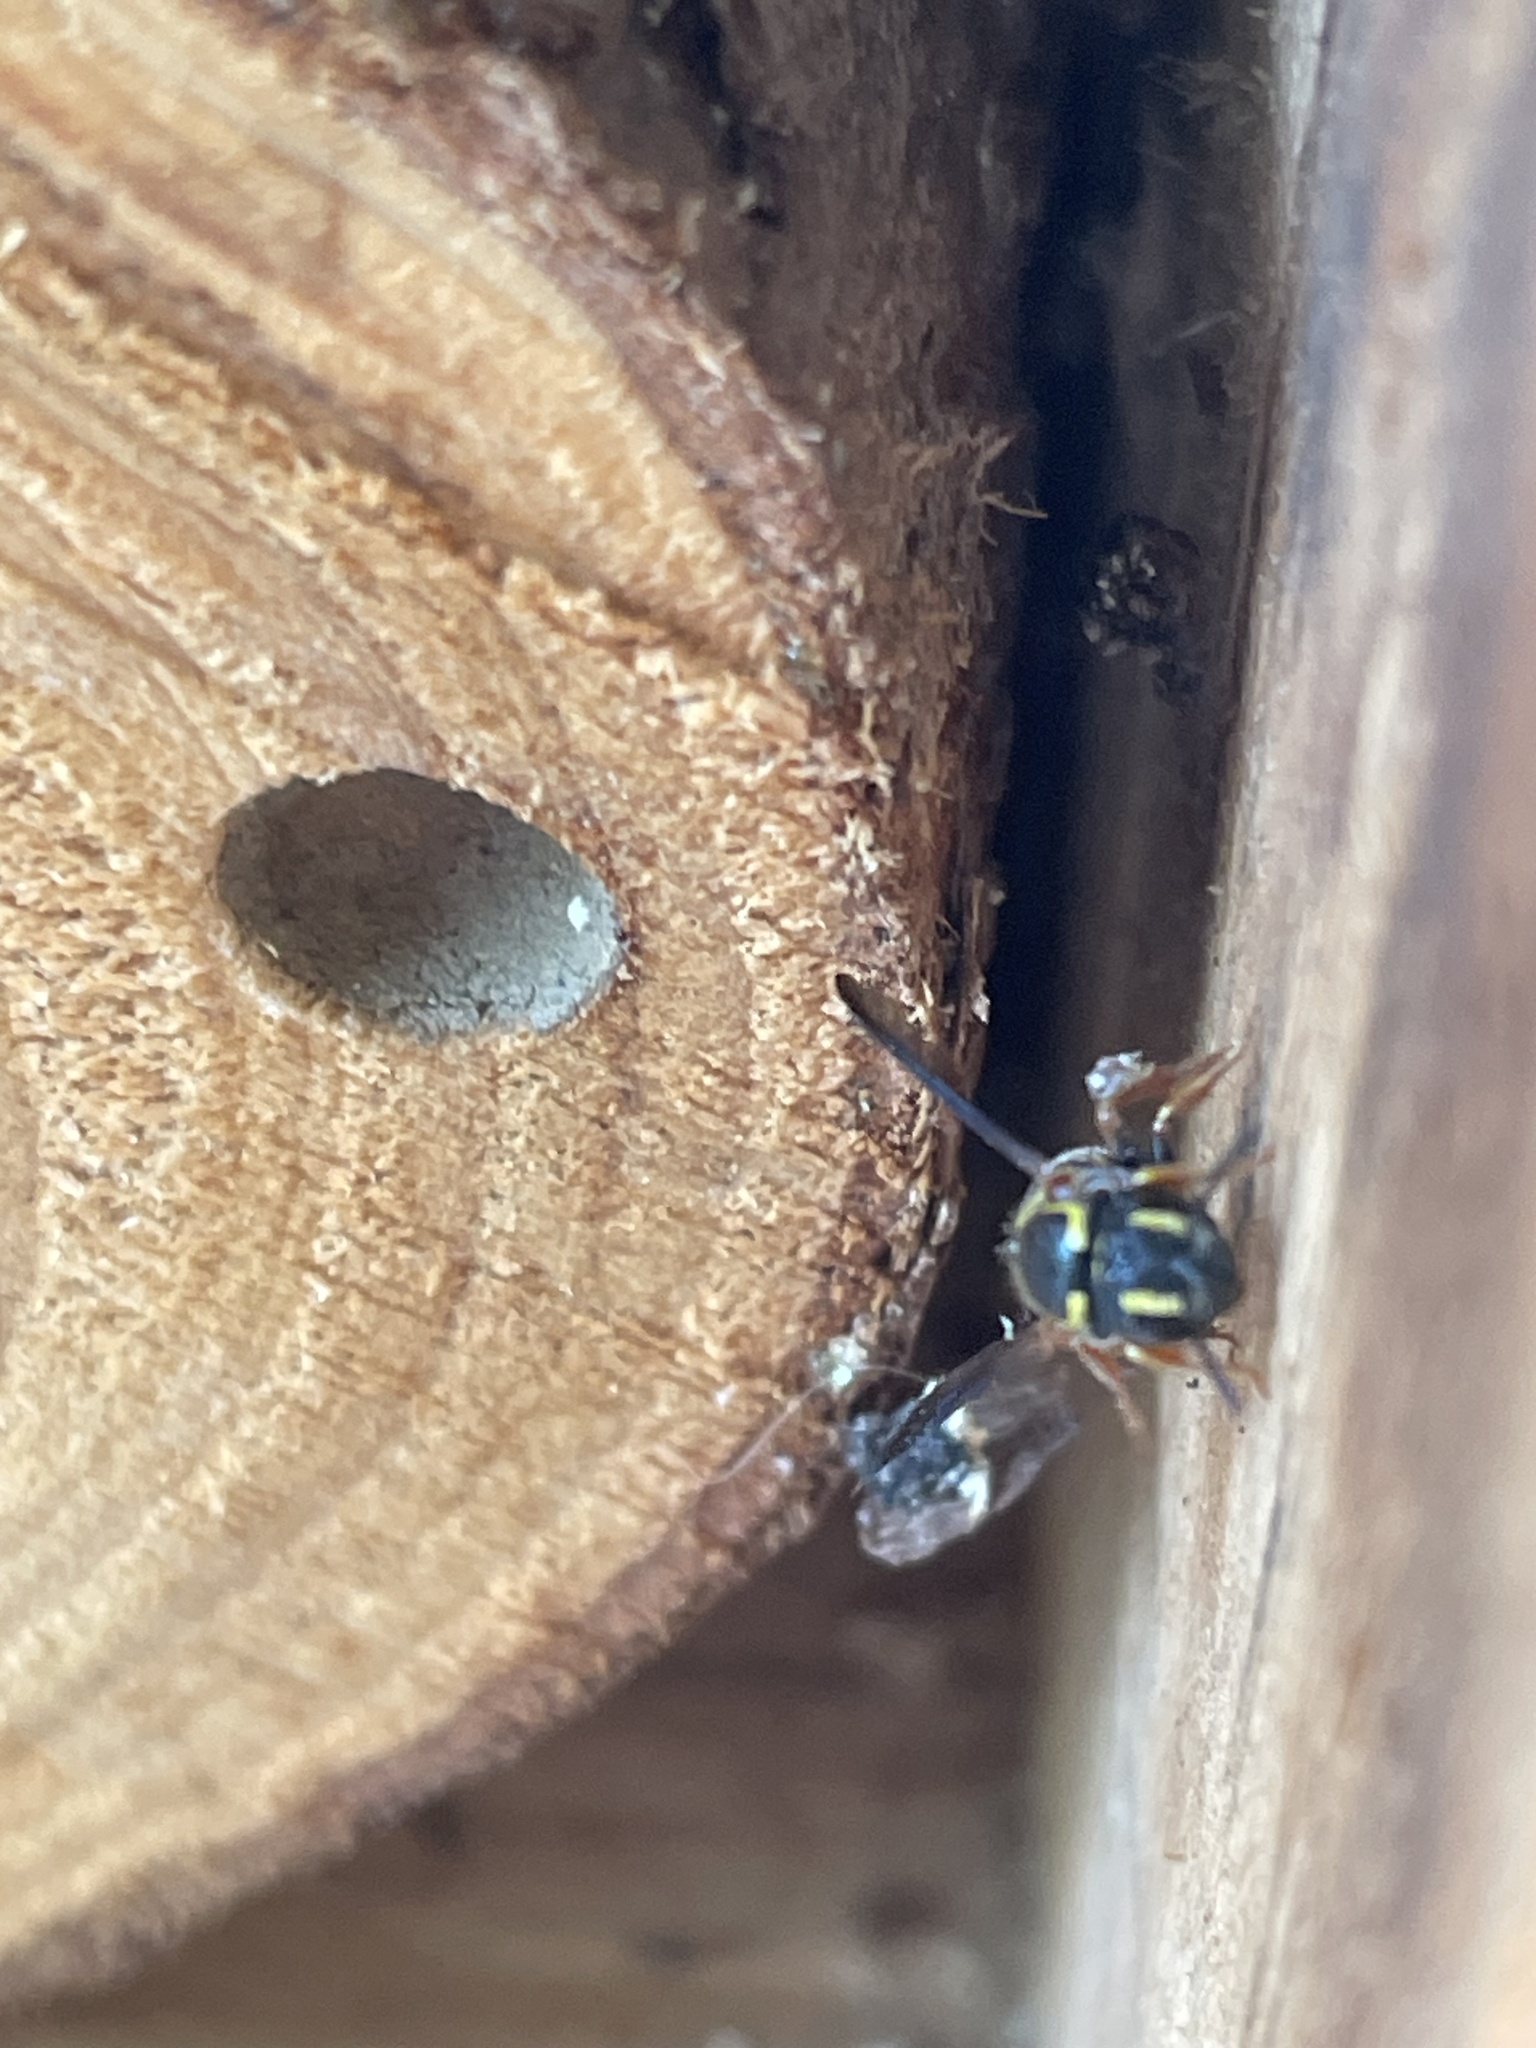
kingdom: Animalia
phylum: Arthropoda
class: Insecta
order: Hymenoptera
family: Megachilidae
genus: Stelis
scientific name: Stelis louisae
